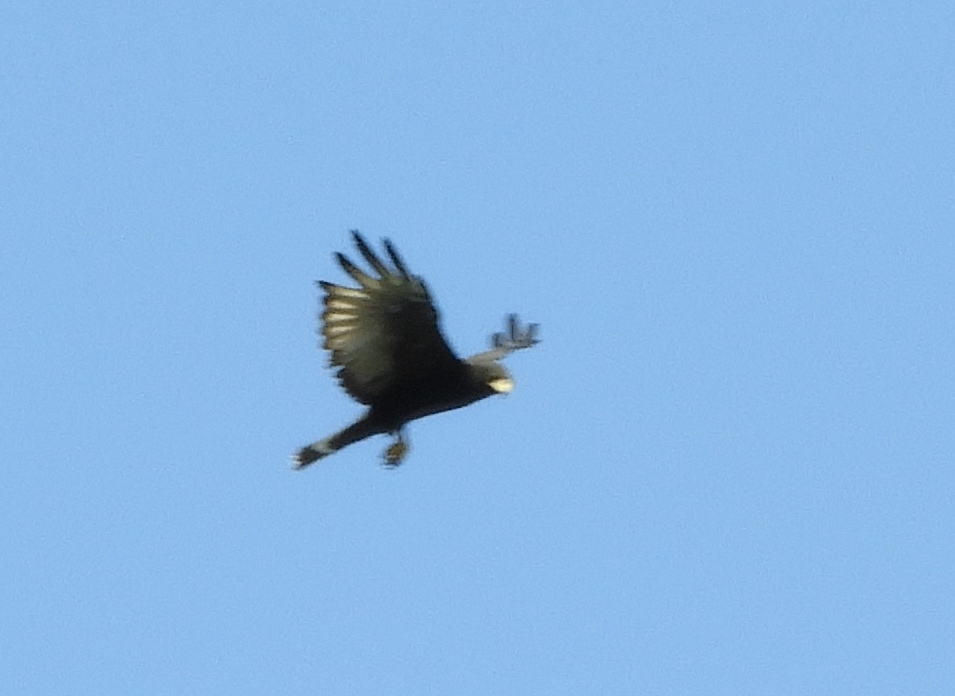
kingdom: Animalia
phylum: Chordata
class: Aves
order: Accipitriformes
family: Accipitridae
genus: Buteo
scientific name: Buteo albonotatus
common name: Zone-tailed hawk
